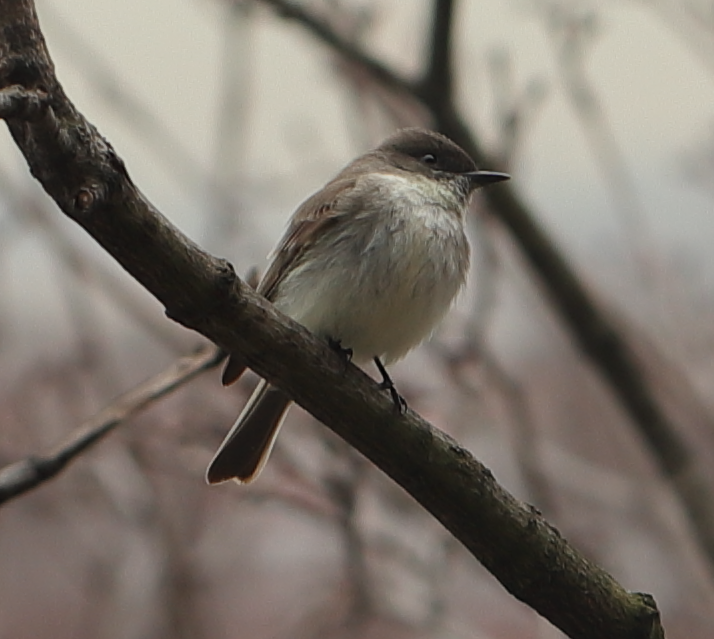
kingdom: Animalia
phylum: Chordata
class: Aves
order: Passeriformes
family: Tyrannidae
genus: Sayornis
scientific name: Sayornis phoebe
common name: Eastern phoebe
